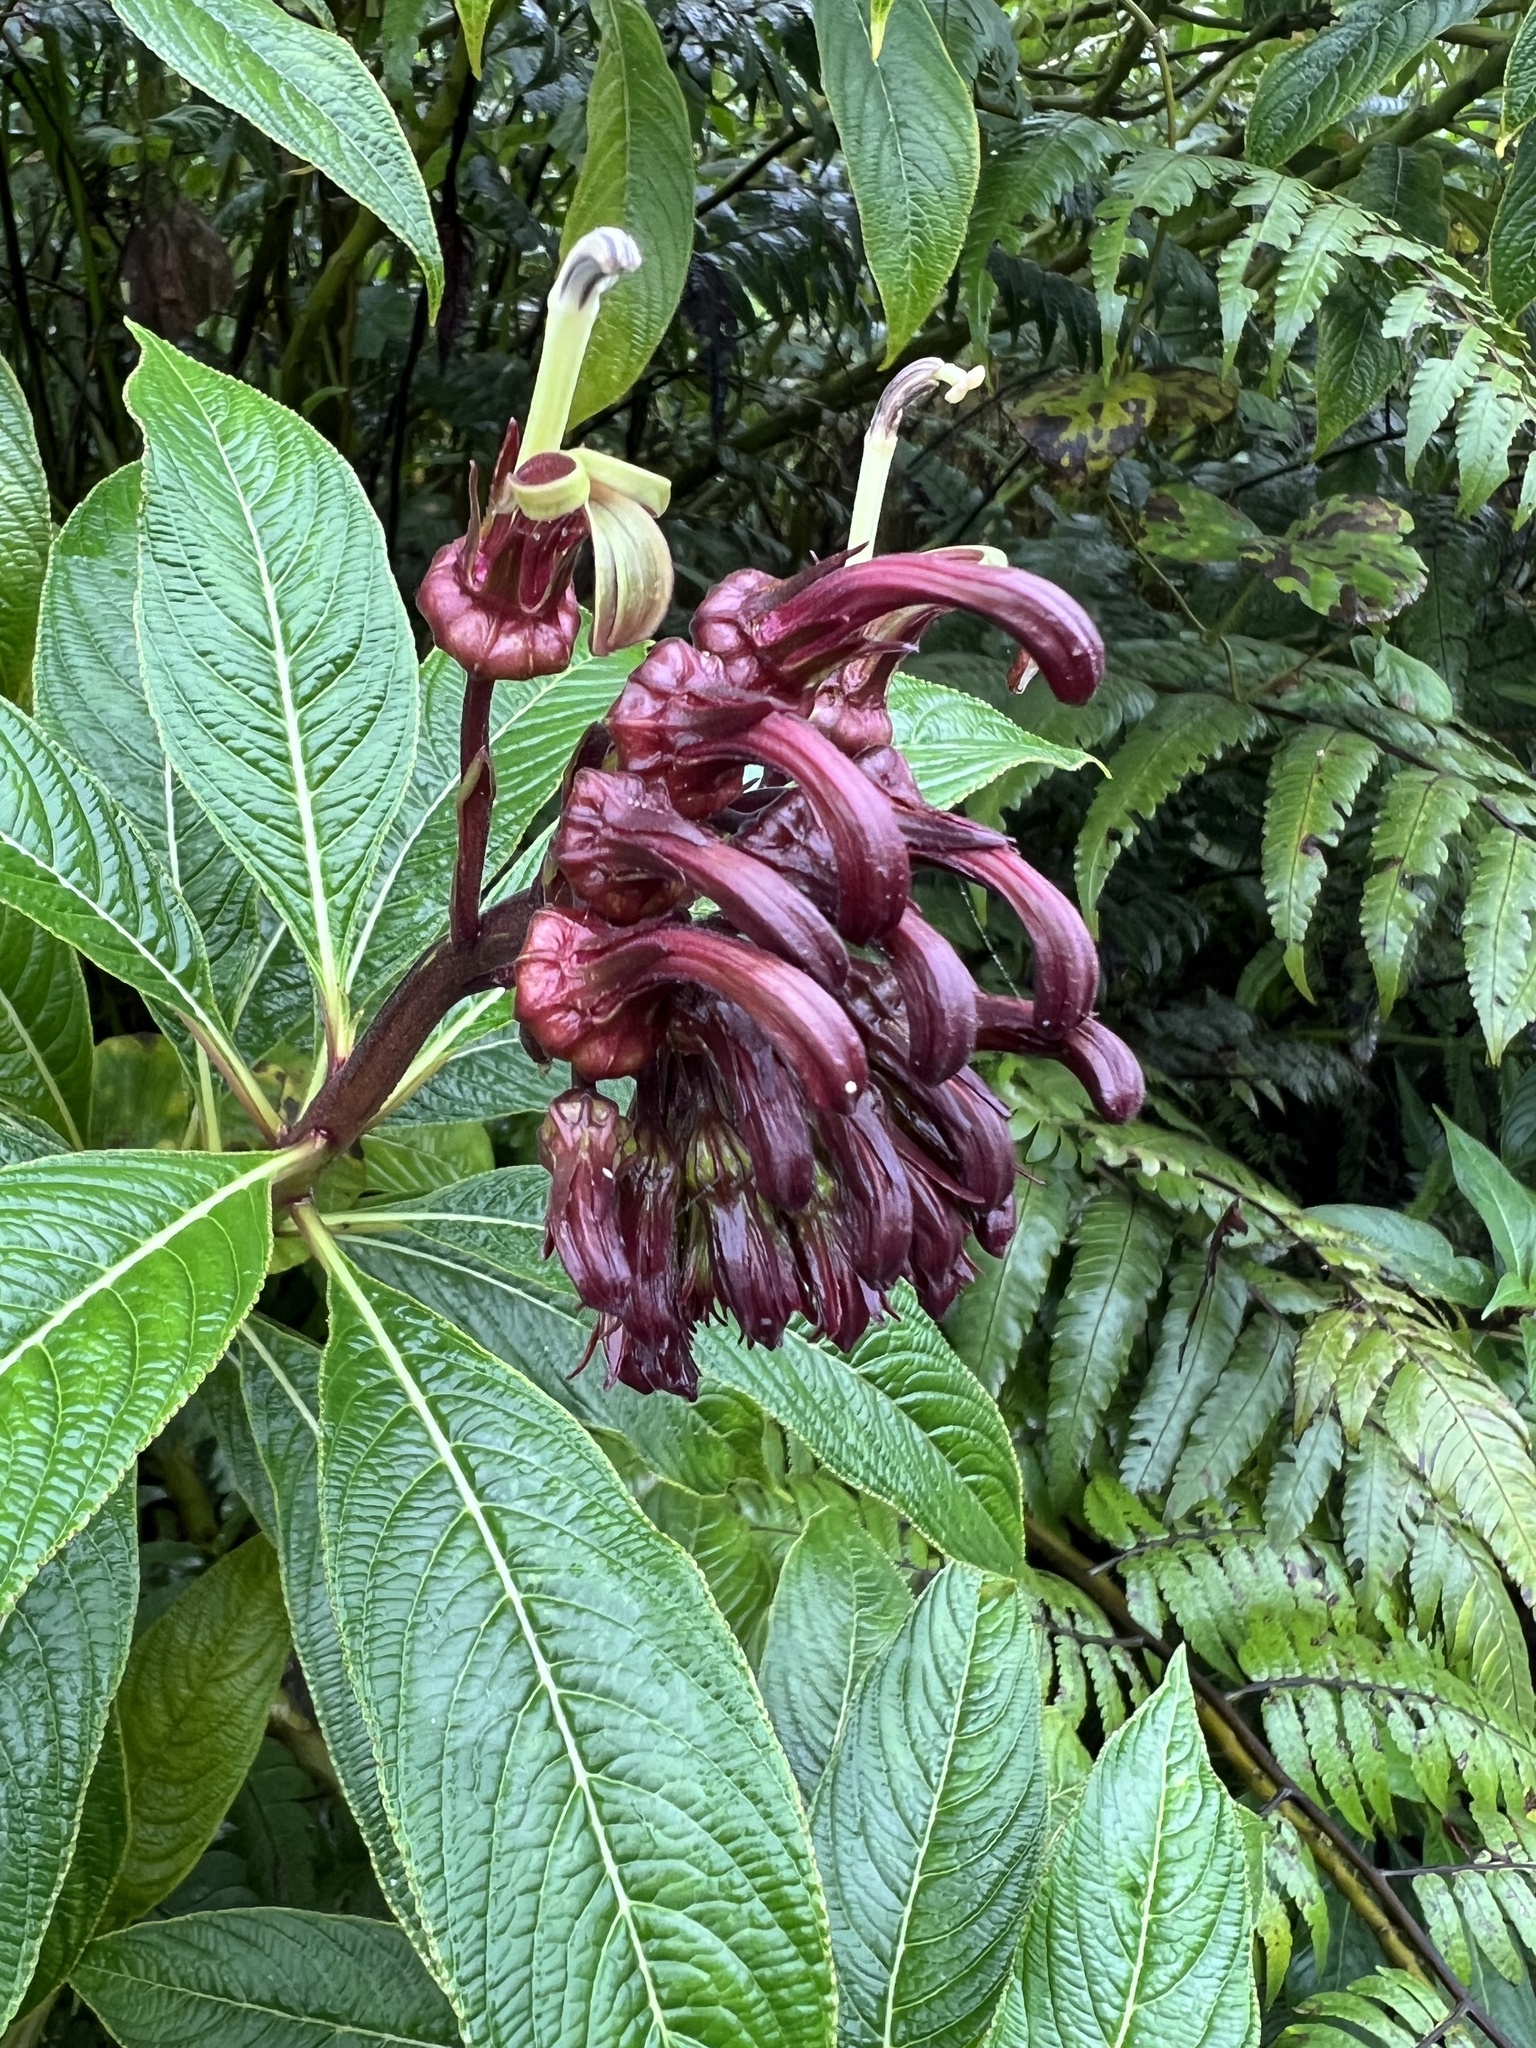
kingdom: Plantae
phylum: Tracheophyta
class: Magnoliopsida
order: Asterales
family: Campanulaceae
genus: Lobelia
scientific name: Lobelia portoricensis
